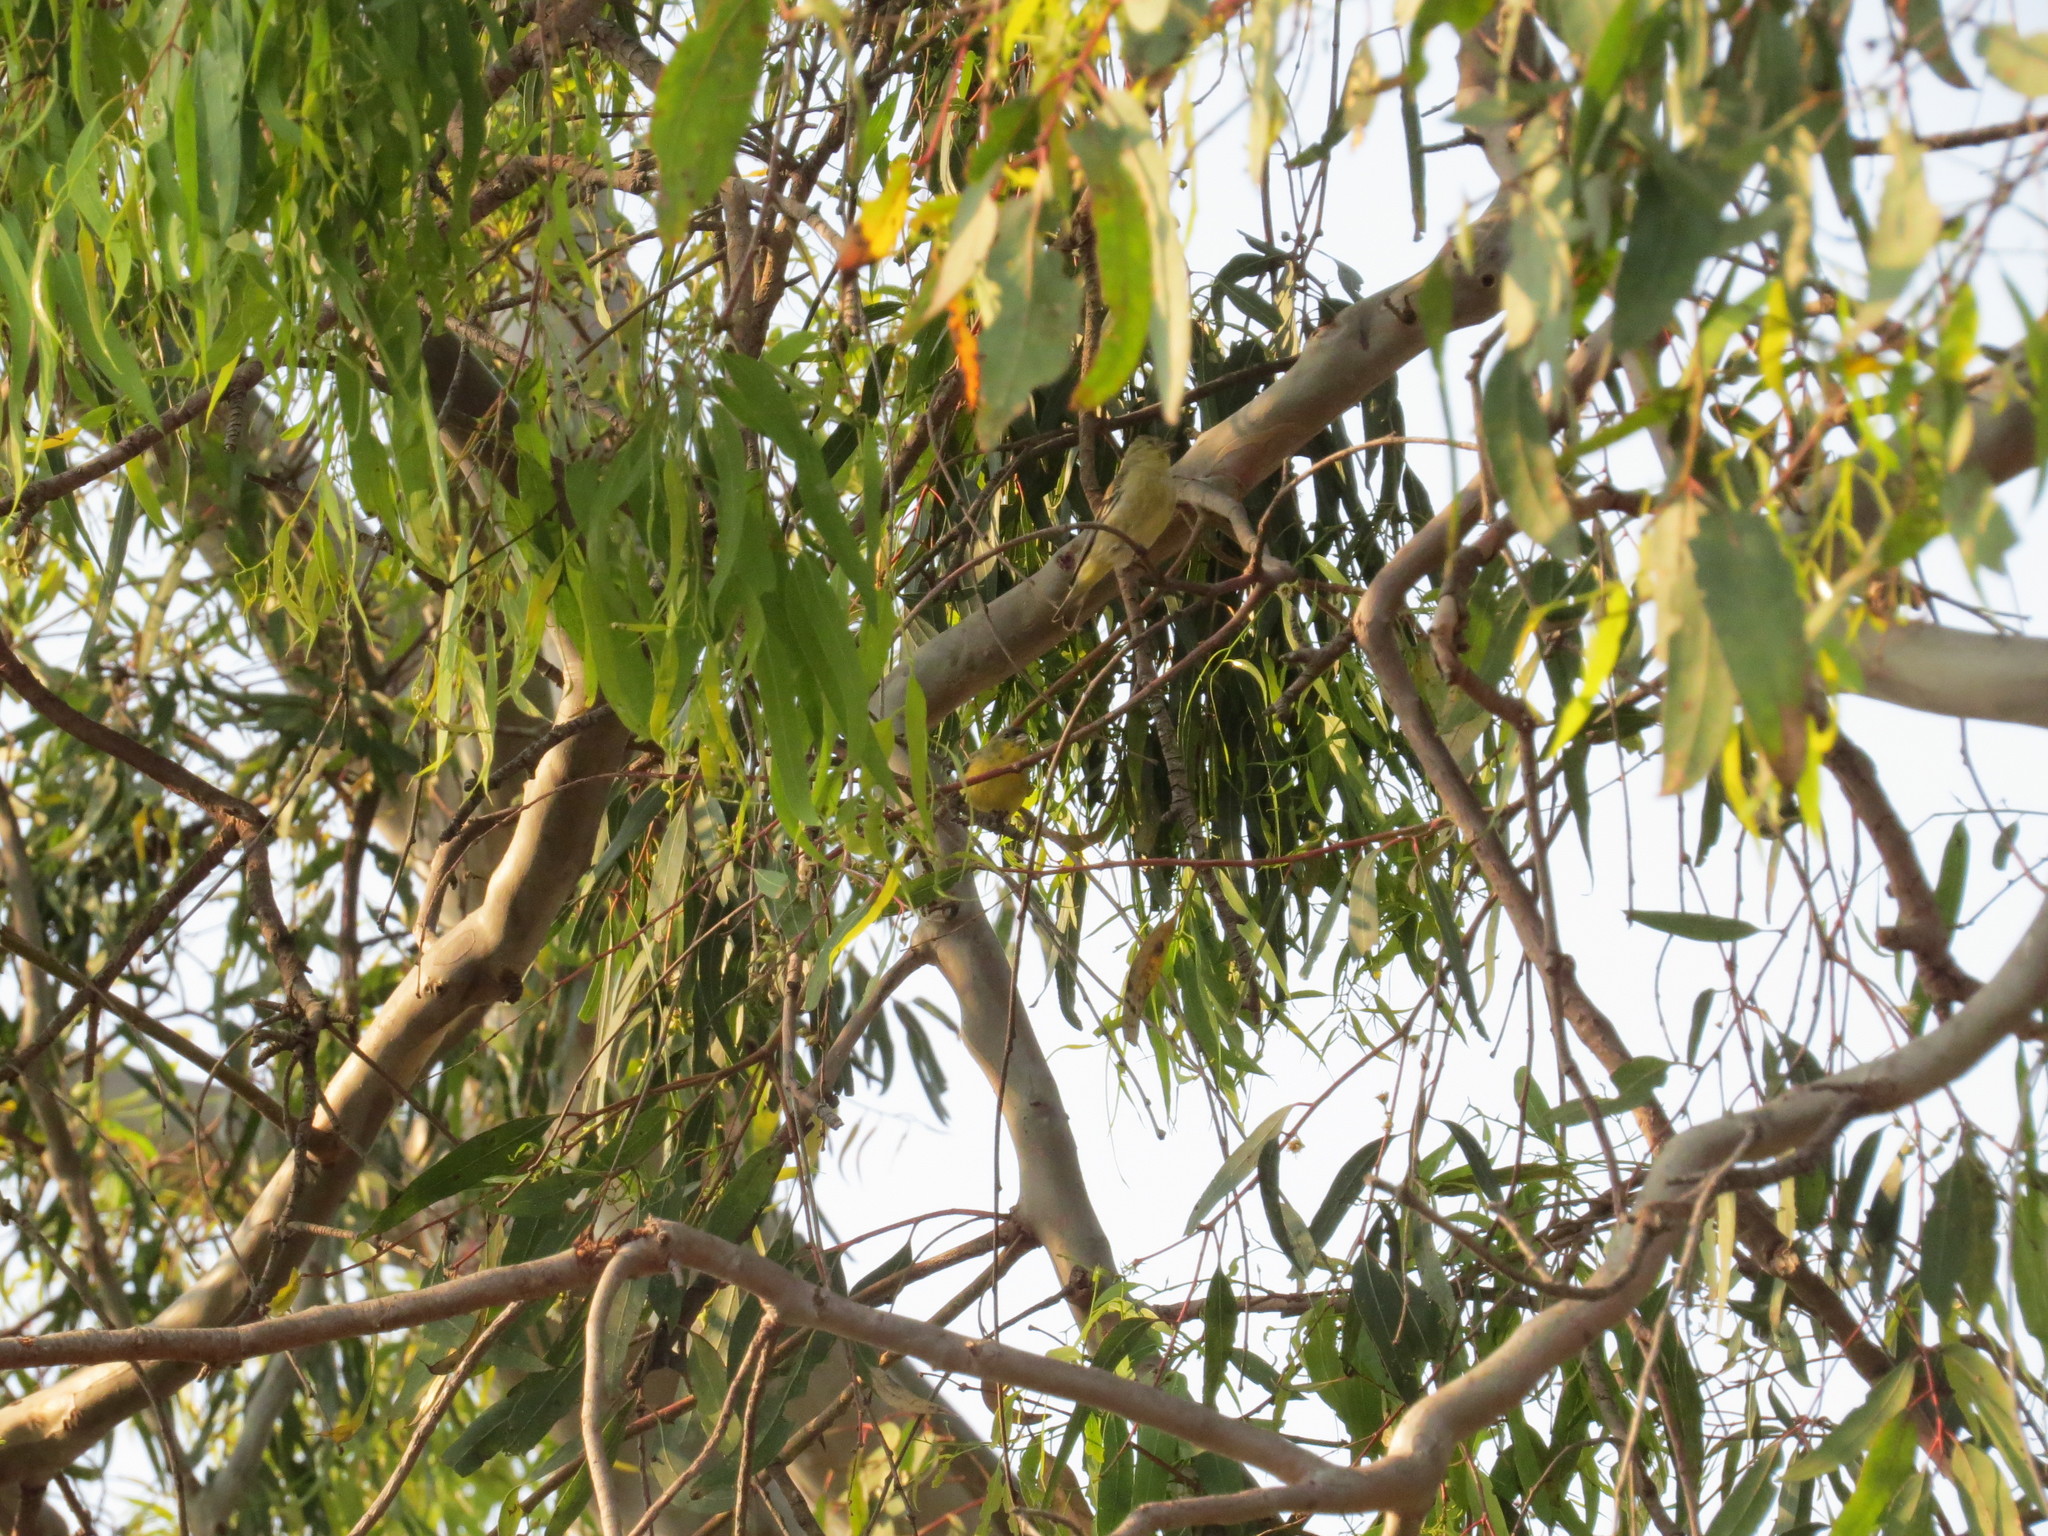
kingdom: Animalia
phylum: Chordata
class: Aves
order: Passeriformes
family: Fringillidae
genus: Spinus
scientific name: Spinus psaltria
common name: Lesser goldfinch
